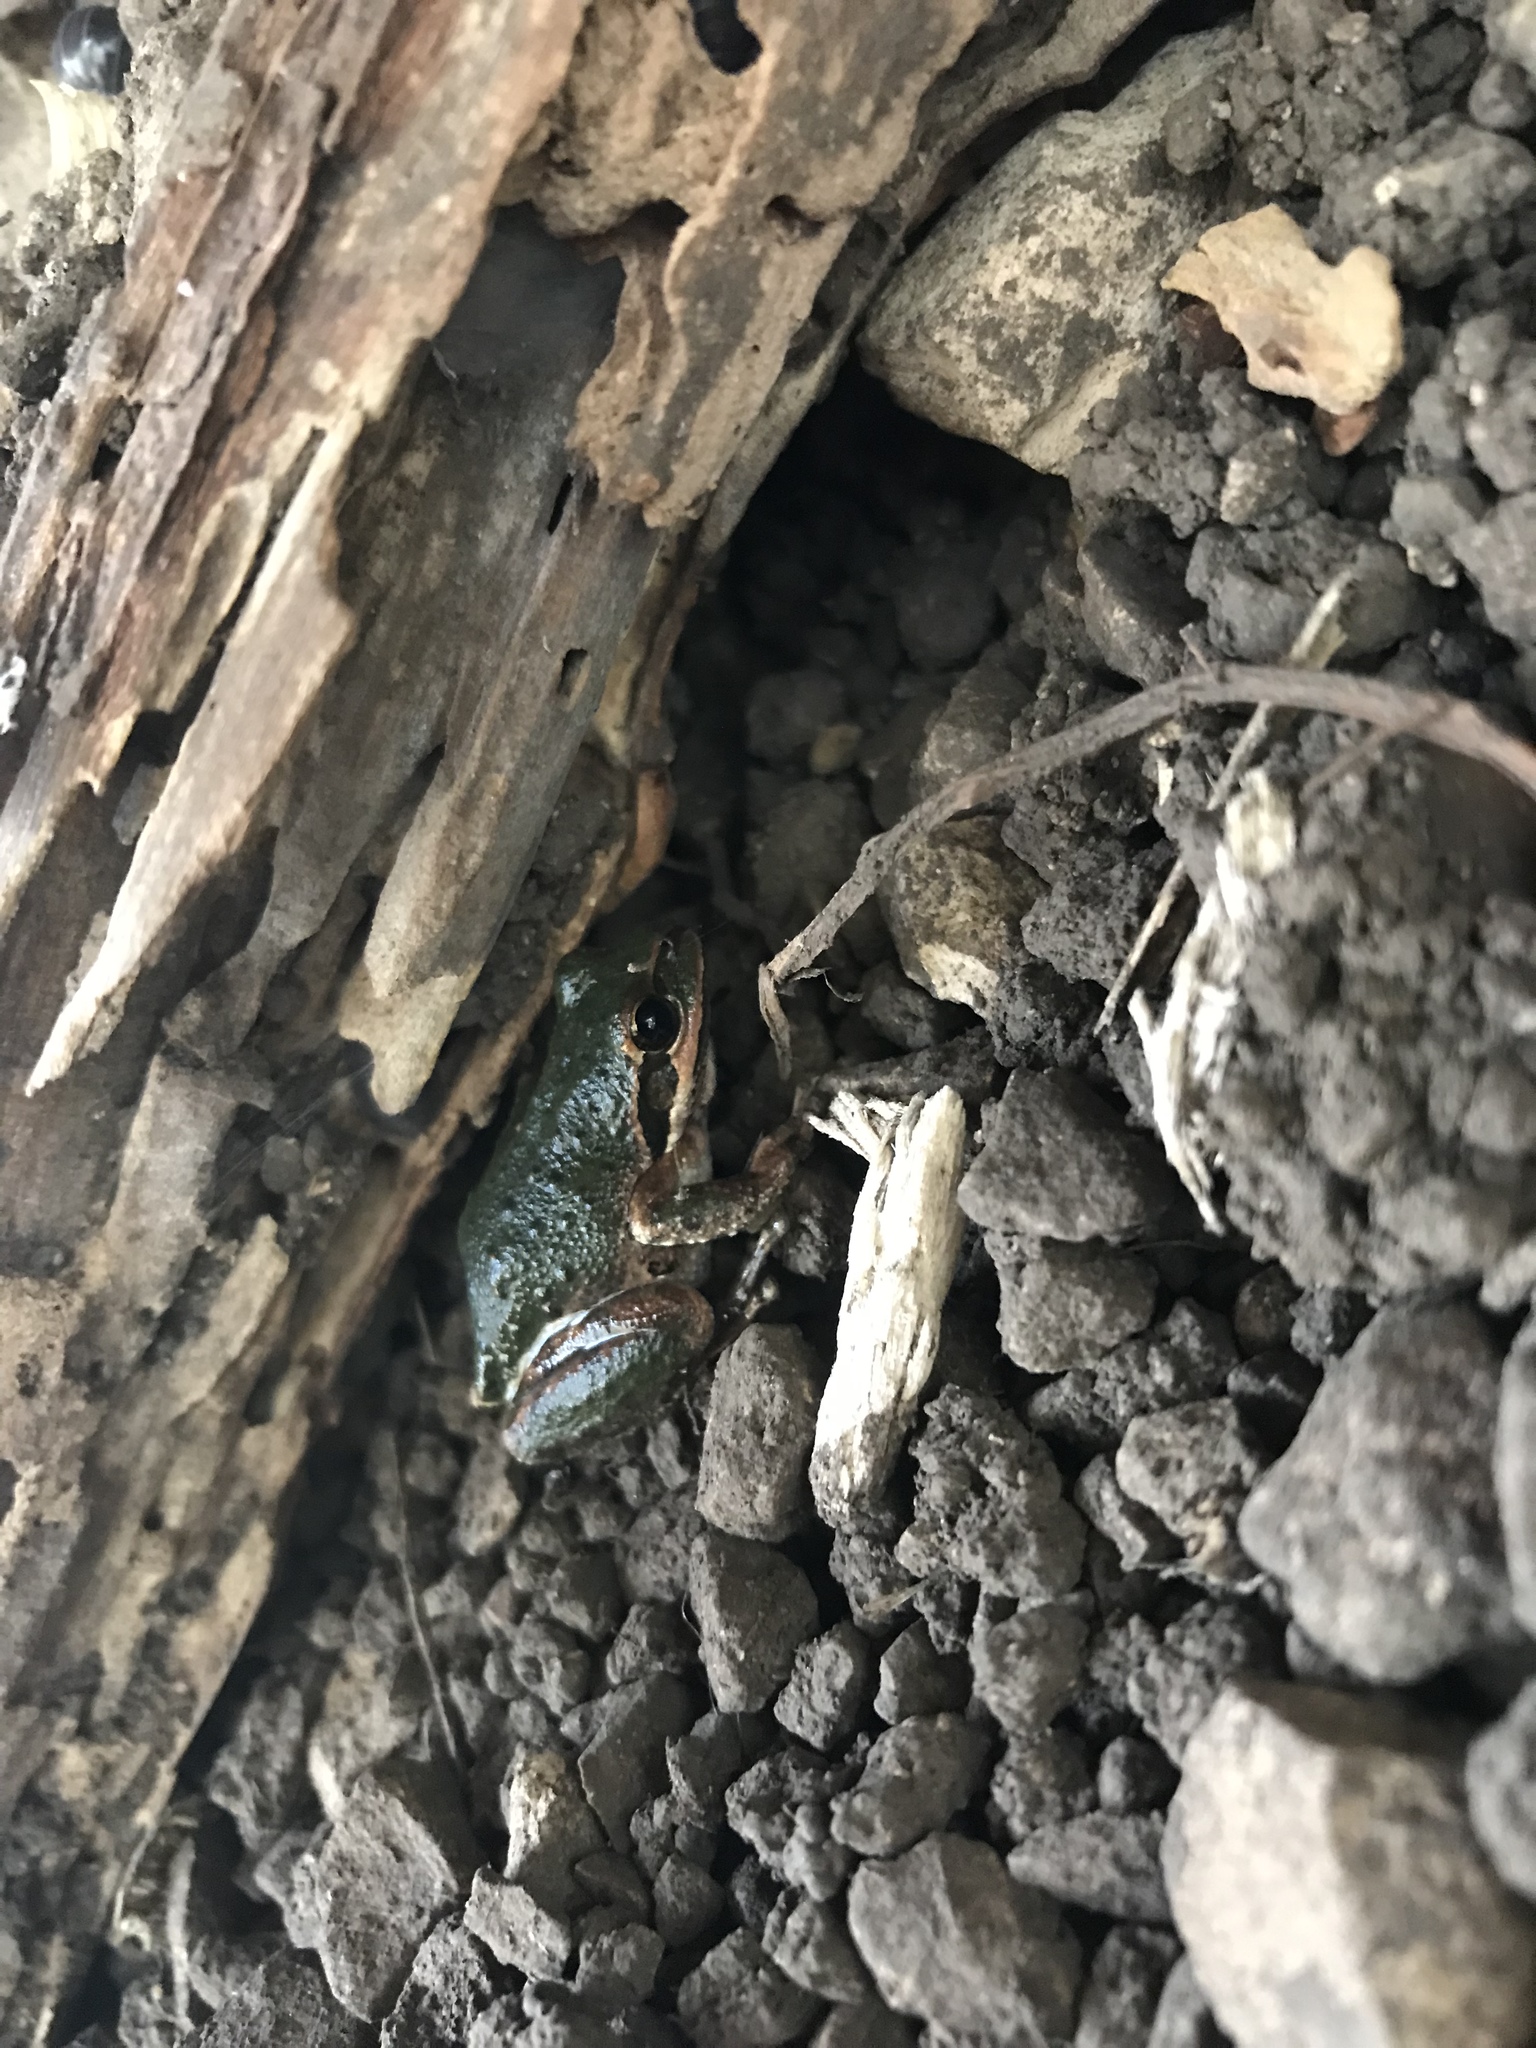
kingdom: Animalia
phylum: Chordata
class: Amphibia
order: Anura
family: Hylidae
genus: Pseudacris
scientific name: Pseudacris regilla
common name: Pacific chorus frog
